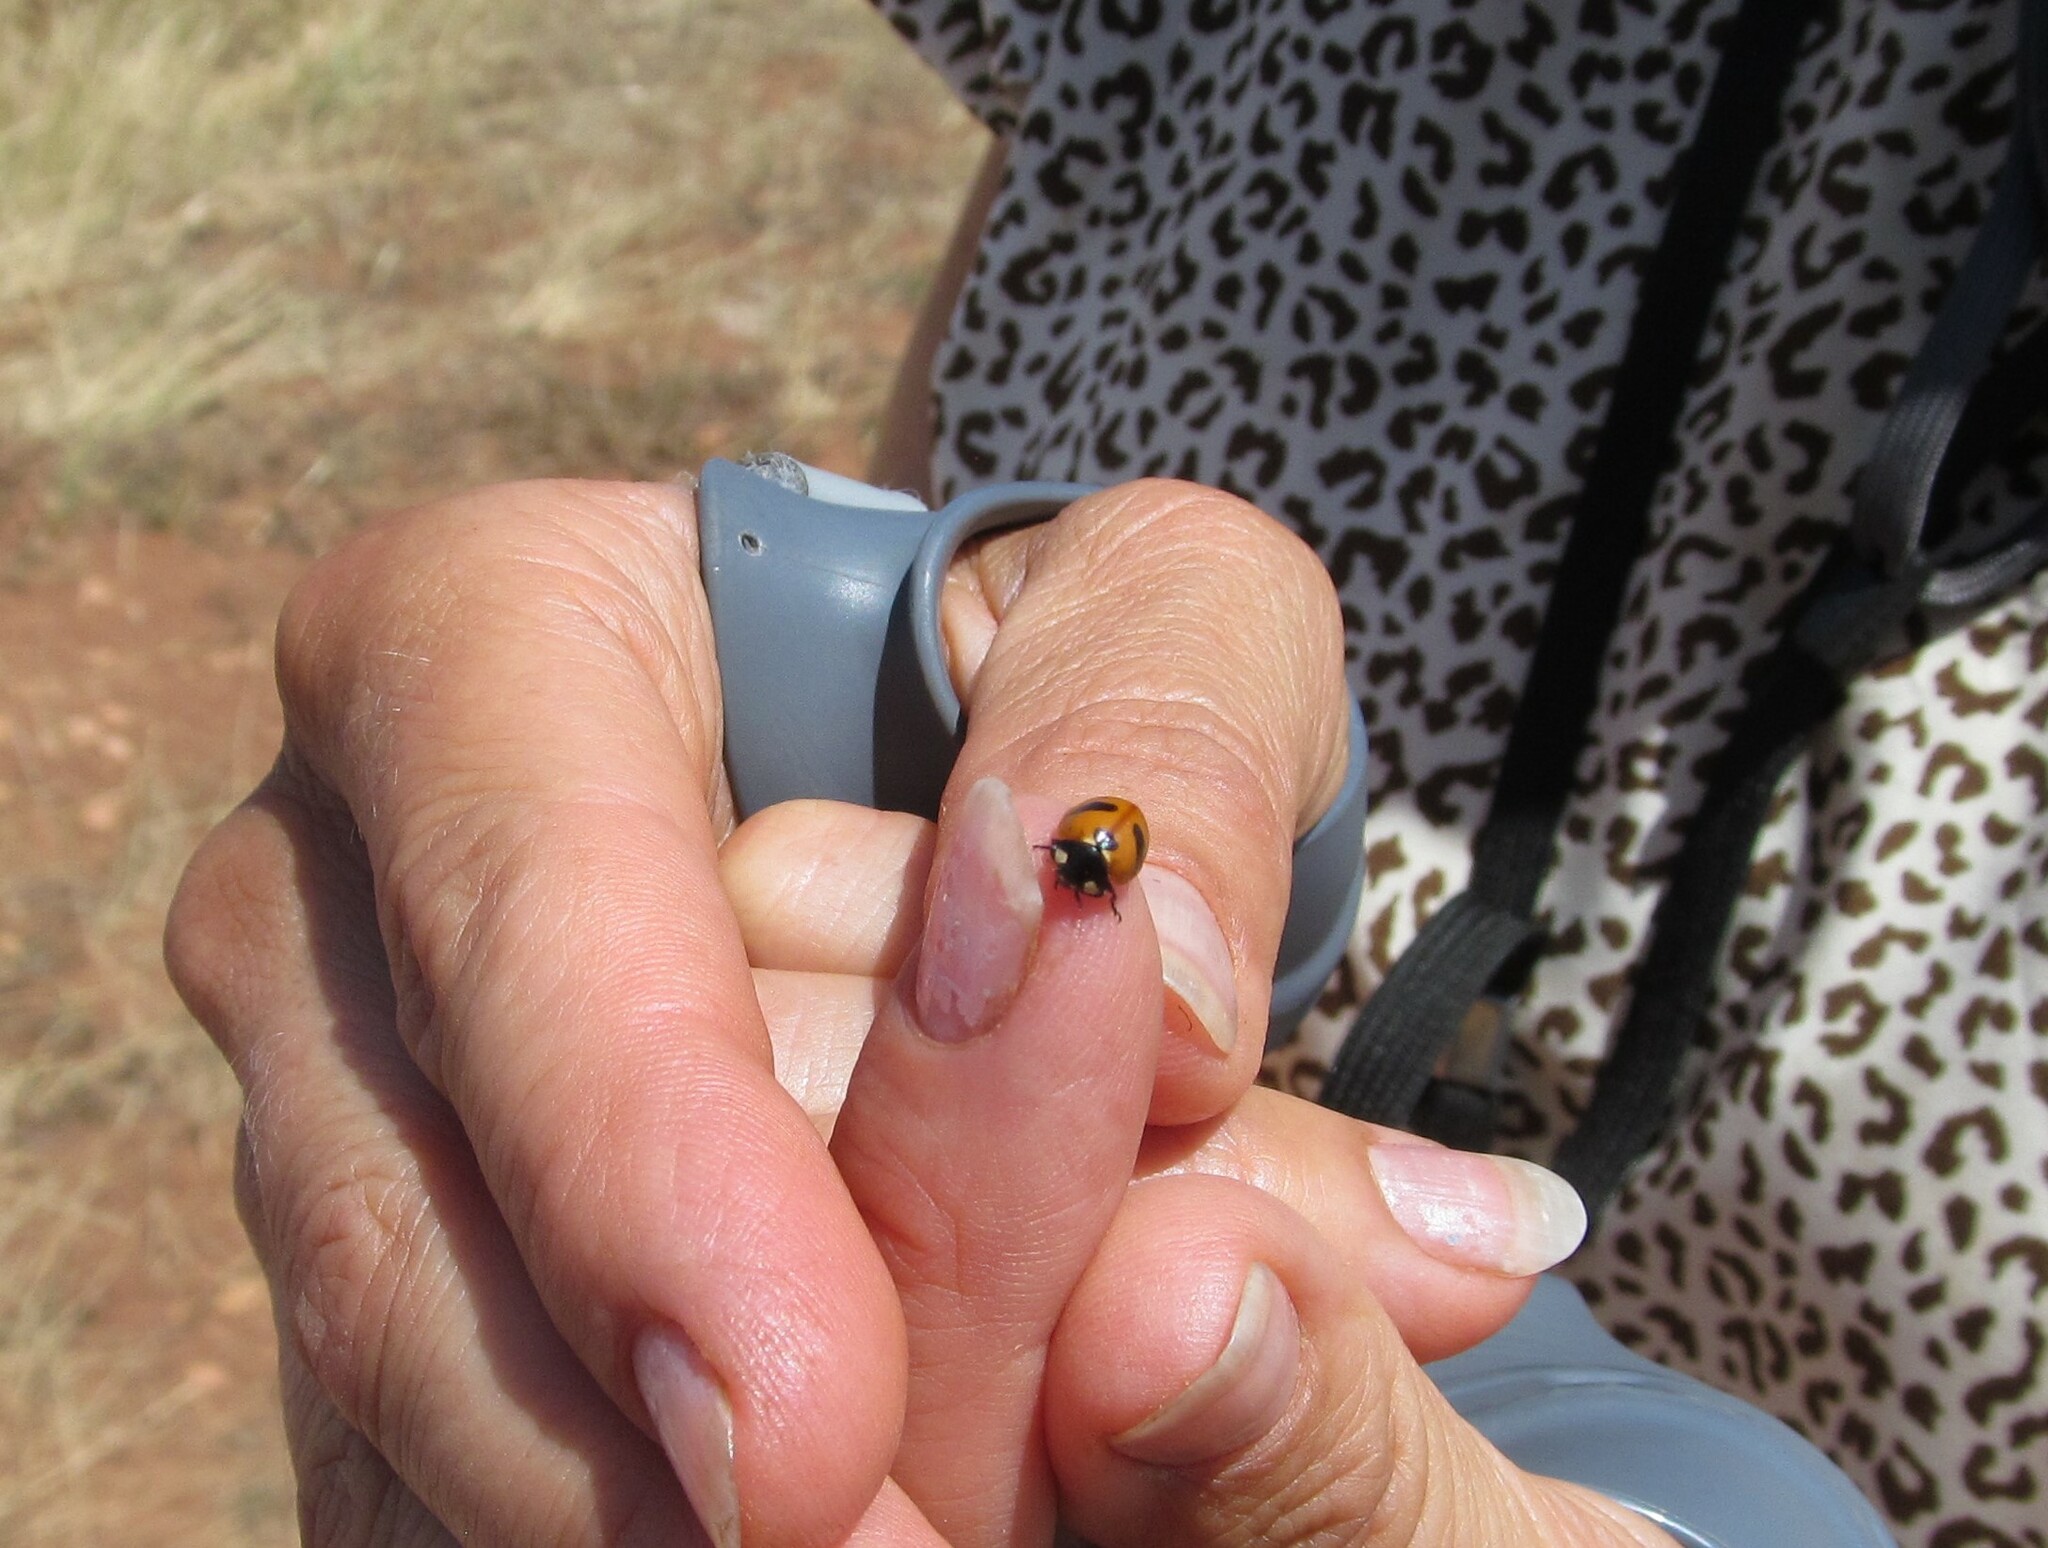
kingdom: Animalia
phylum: Arthropoda
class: Insecta
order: Coleoptera
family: Coccinellidae
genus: Coccinella
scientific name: Coccinella monticola
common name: Mountain lady beetle
